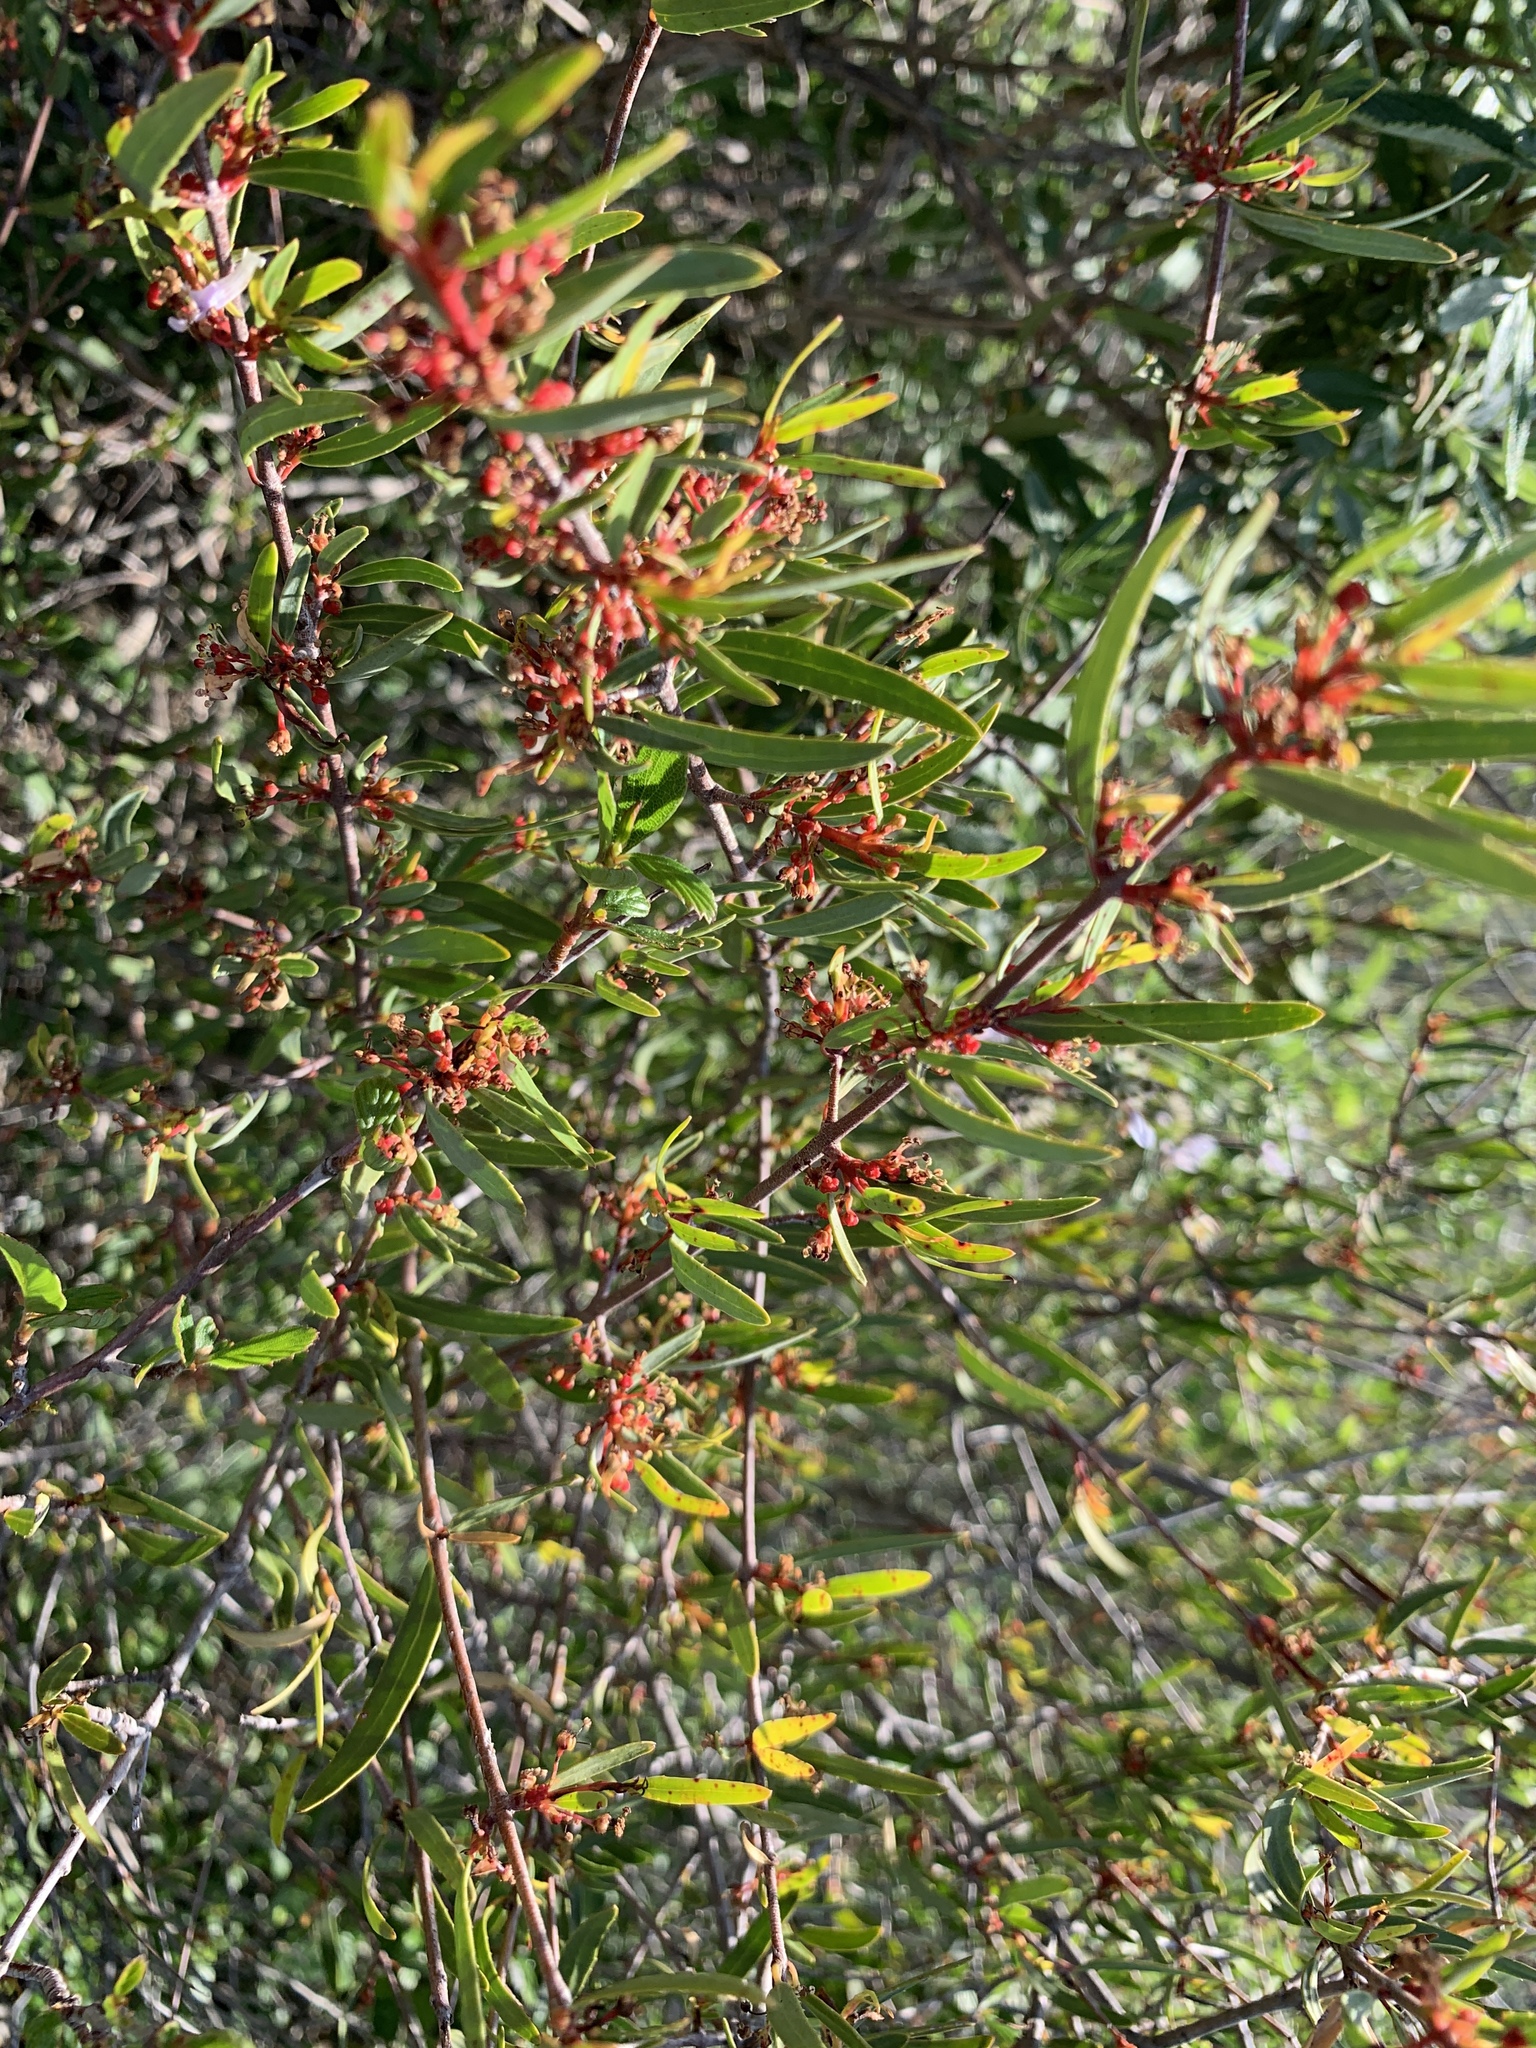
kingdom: Plantae
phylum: Tracheophyta
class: Magnoliopsida
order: Malpighiales
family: Picrodendraceae
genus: Tetracoccus
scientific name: Tetracoccus dioicus
